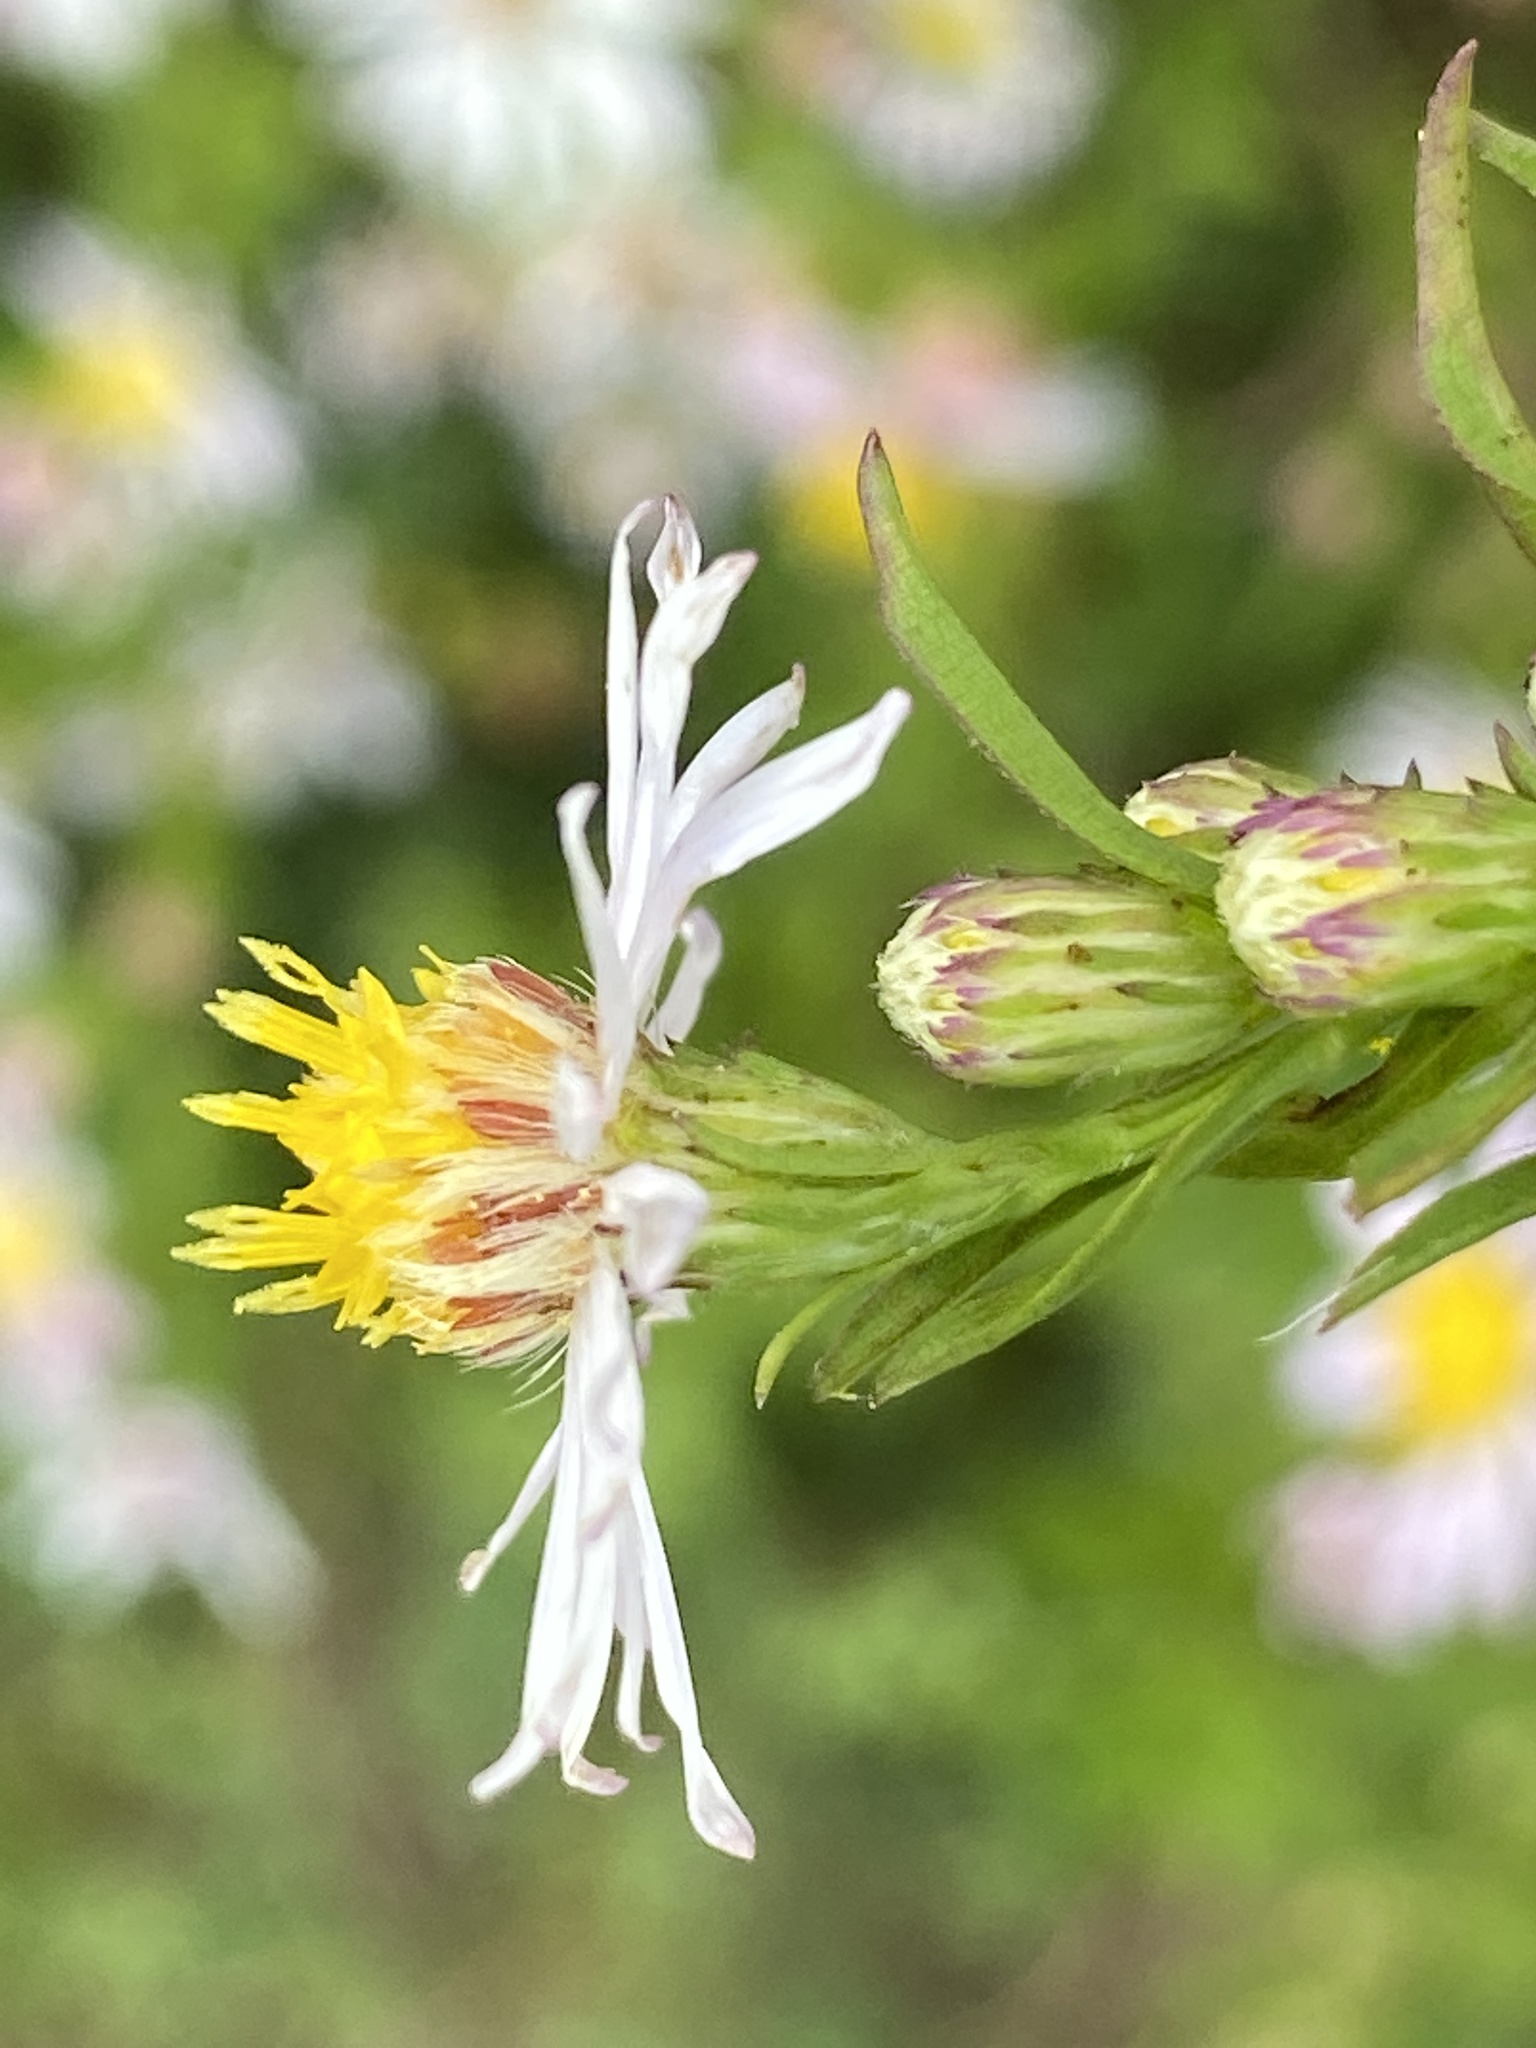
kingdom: Plantae
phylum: Tracheophyta
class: Magnoliopsida
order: Asterales
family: Asteraceae
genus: Symphyotrichum
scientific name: Symphyotrichum lanceolatum
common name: Panicled aster
